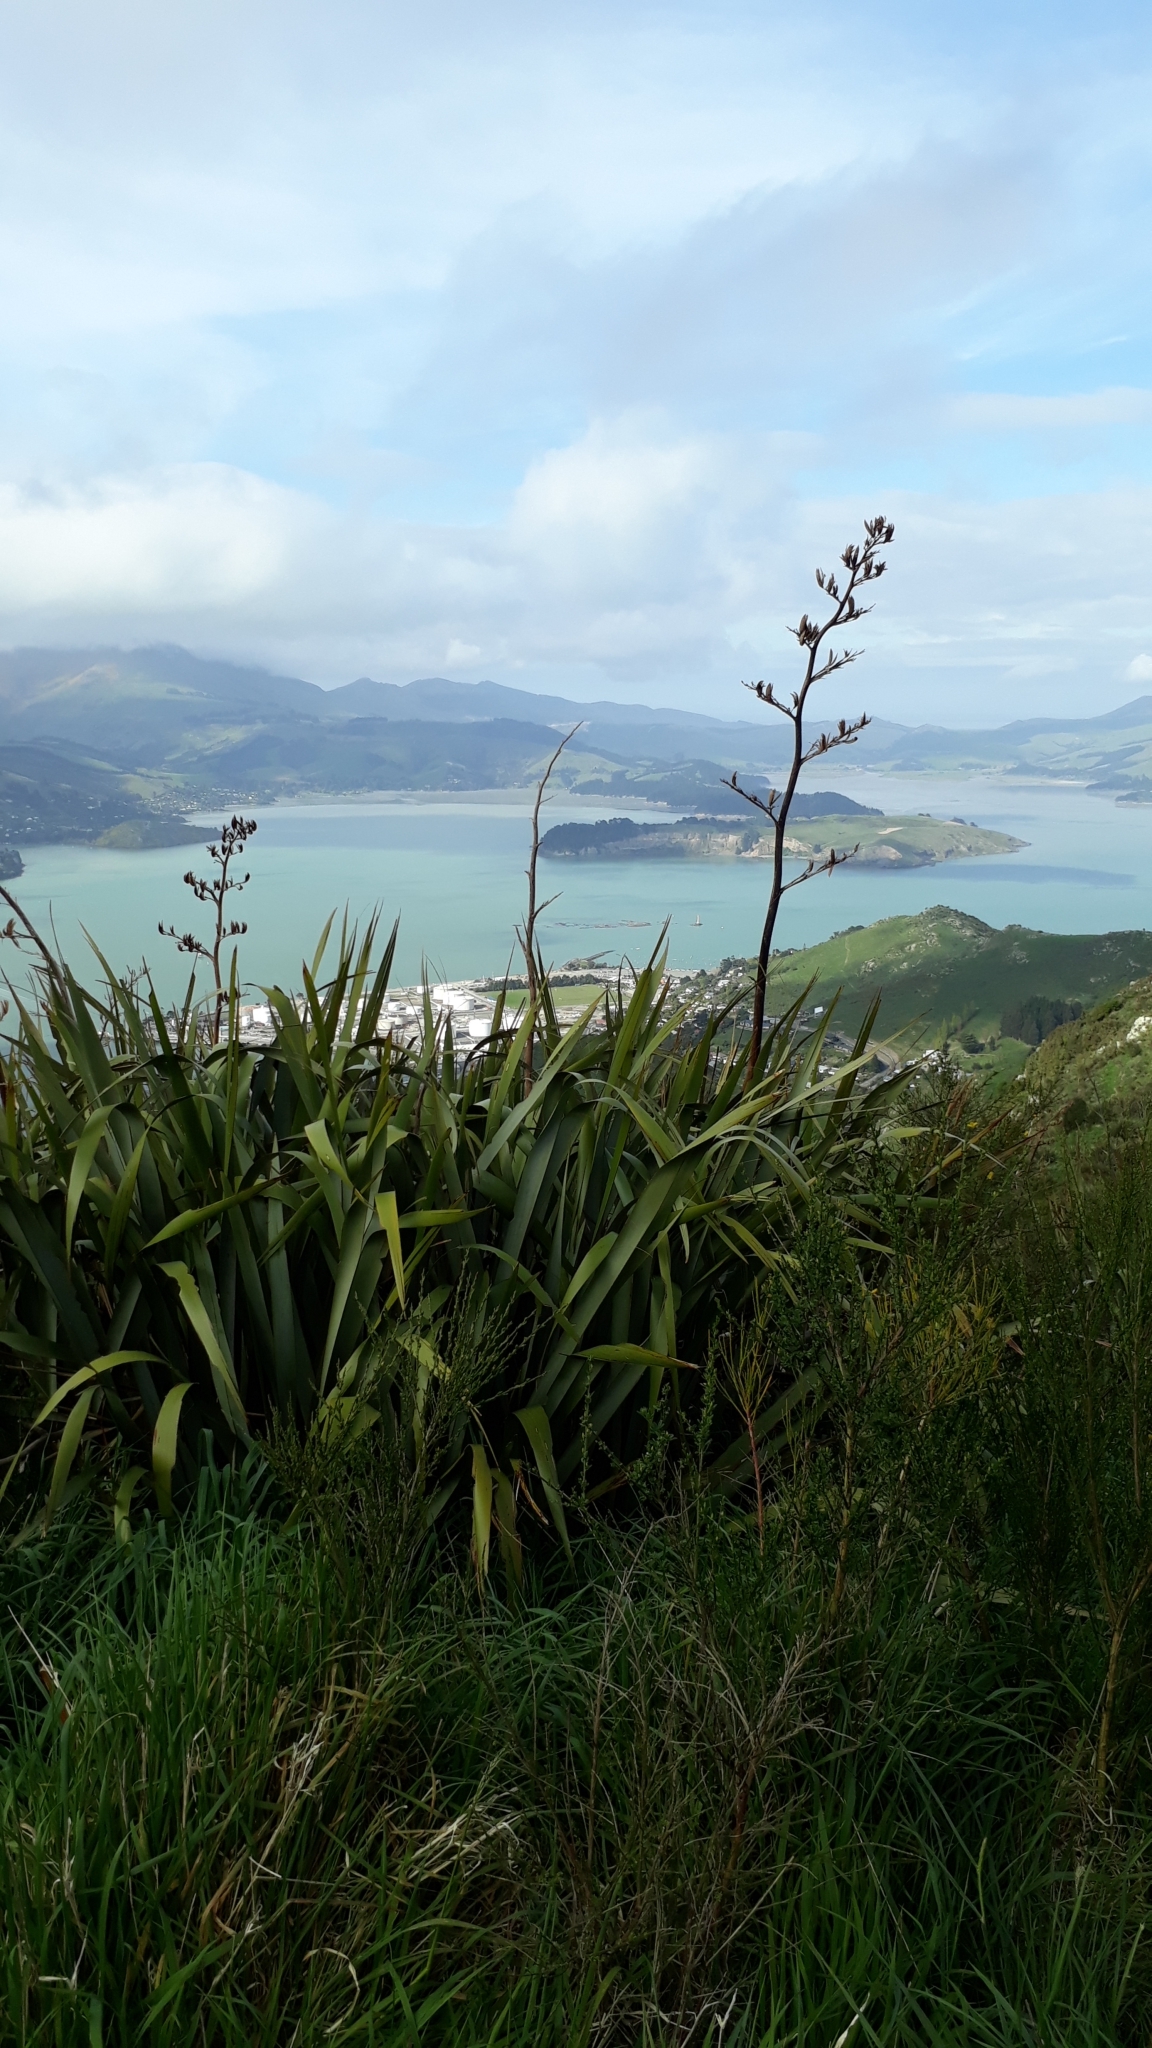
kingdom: Plantae
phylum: Tracheophyta
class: Liliopsida
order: Asparagales
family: Asphodelaceae
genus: Phormium
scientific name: Phormium tenax
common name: New zealand flax
